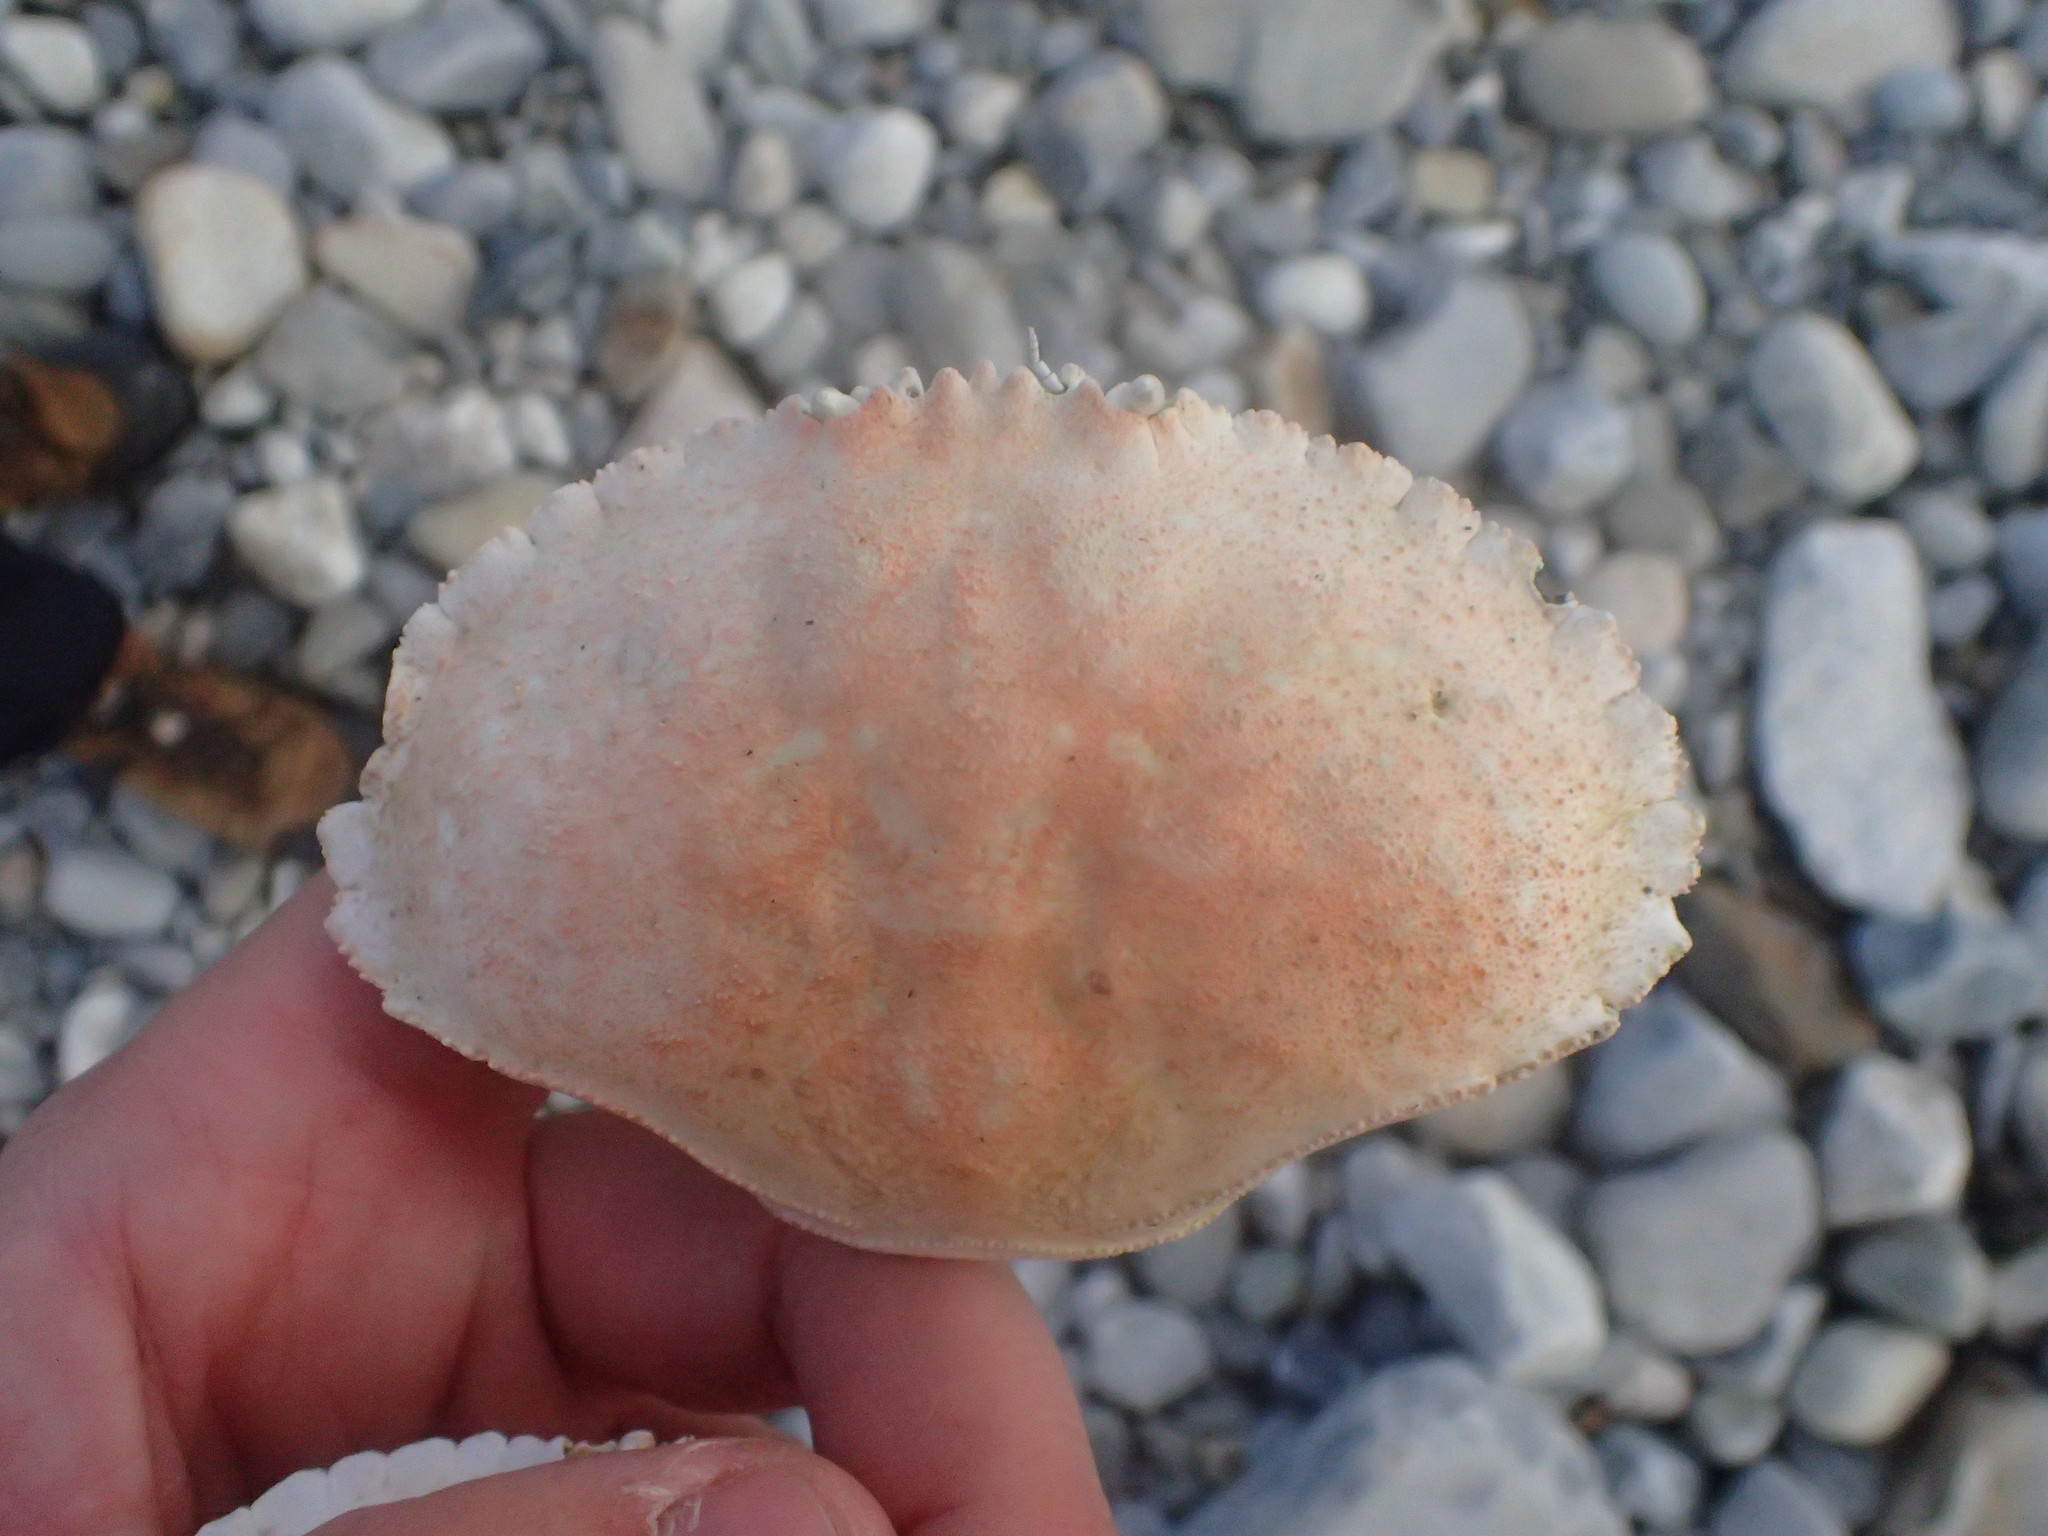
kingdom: Animalia
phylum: Arthropoda
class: Malacostraca
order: Decapoda
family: Cancridae
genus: Cancer
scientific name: Cancer borealis
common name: Jonah crab
